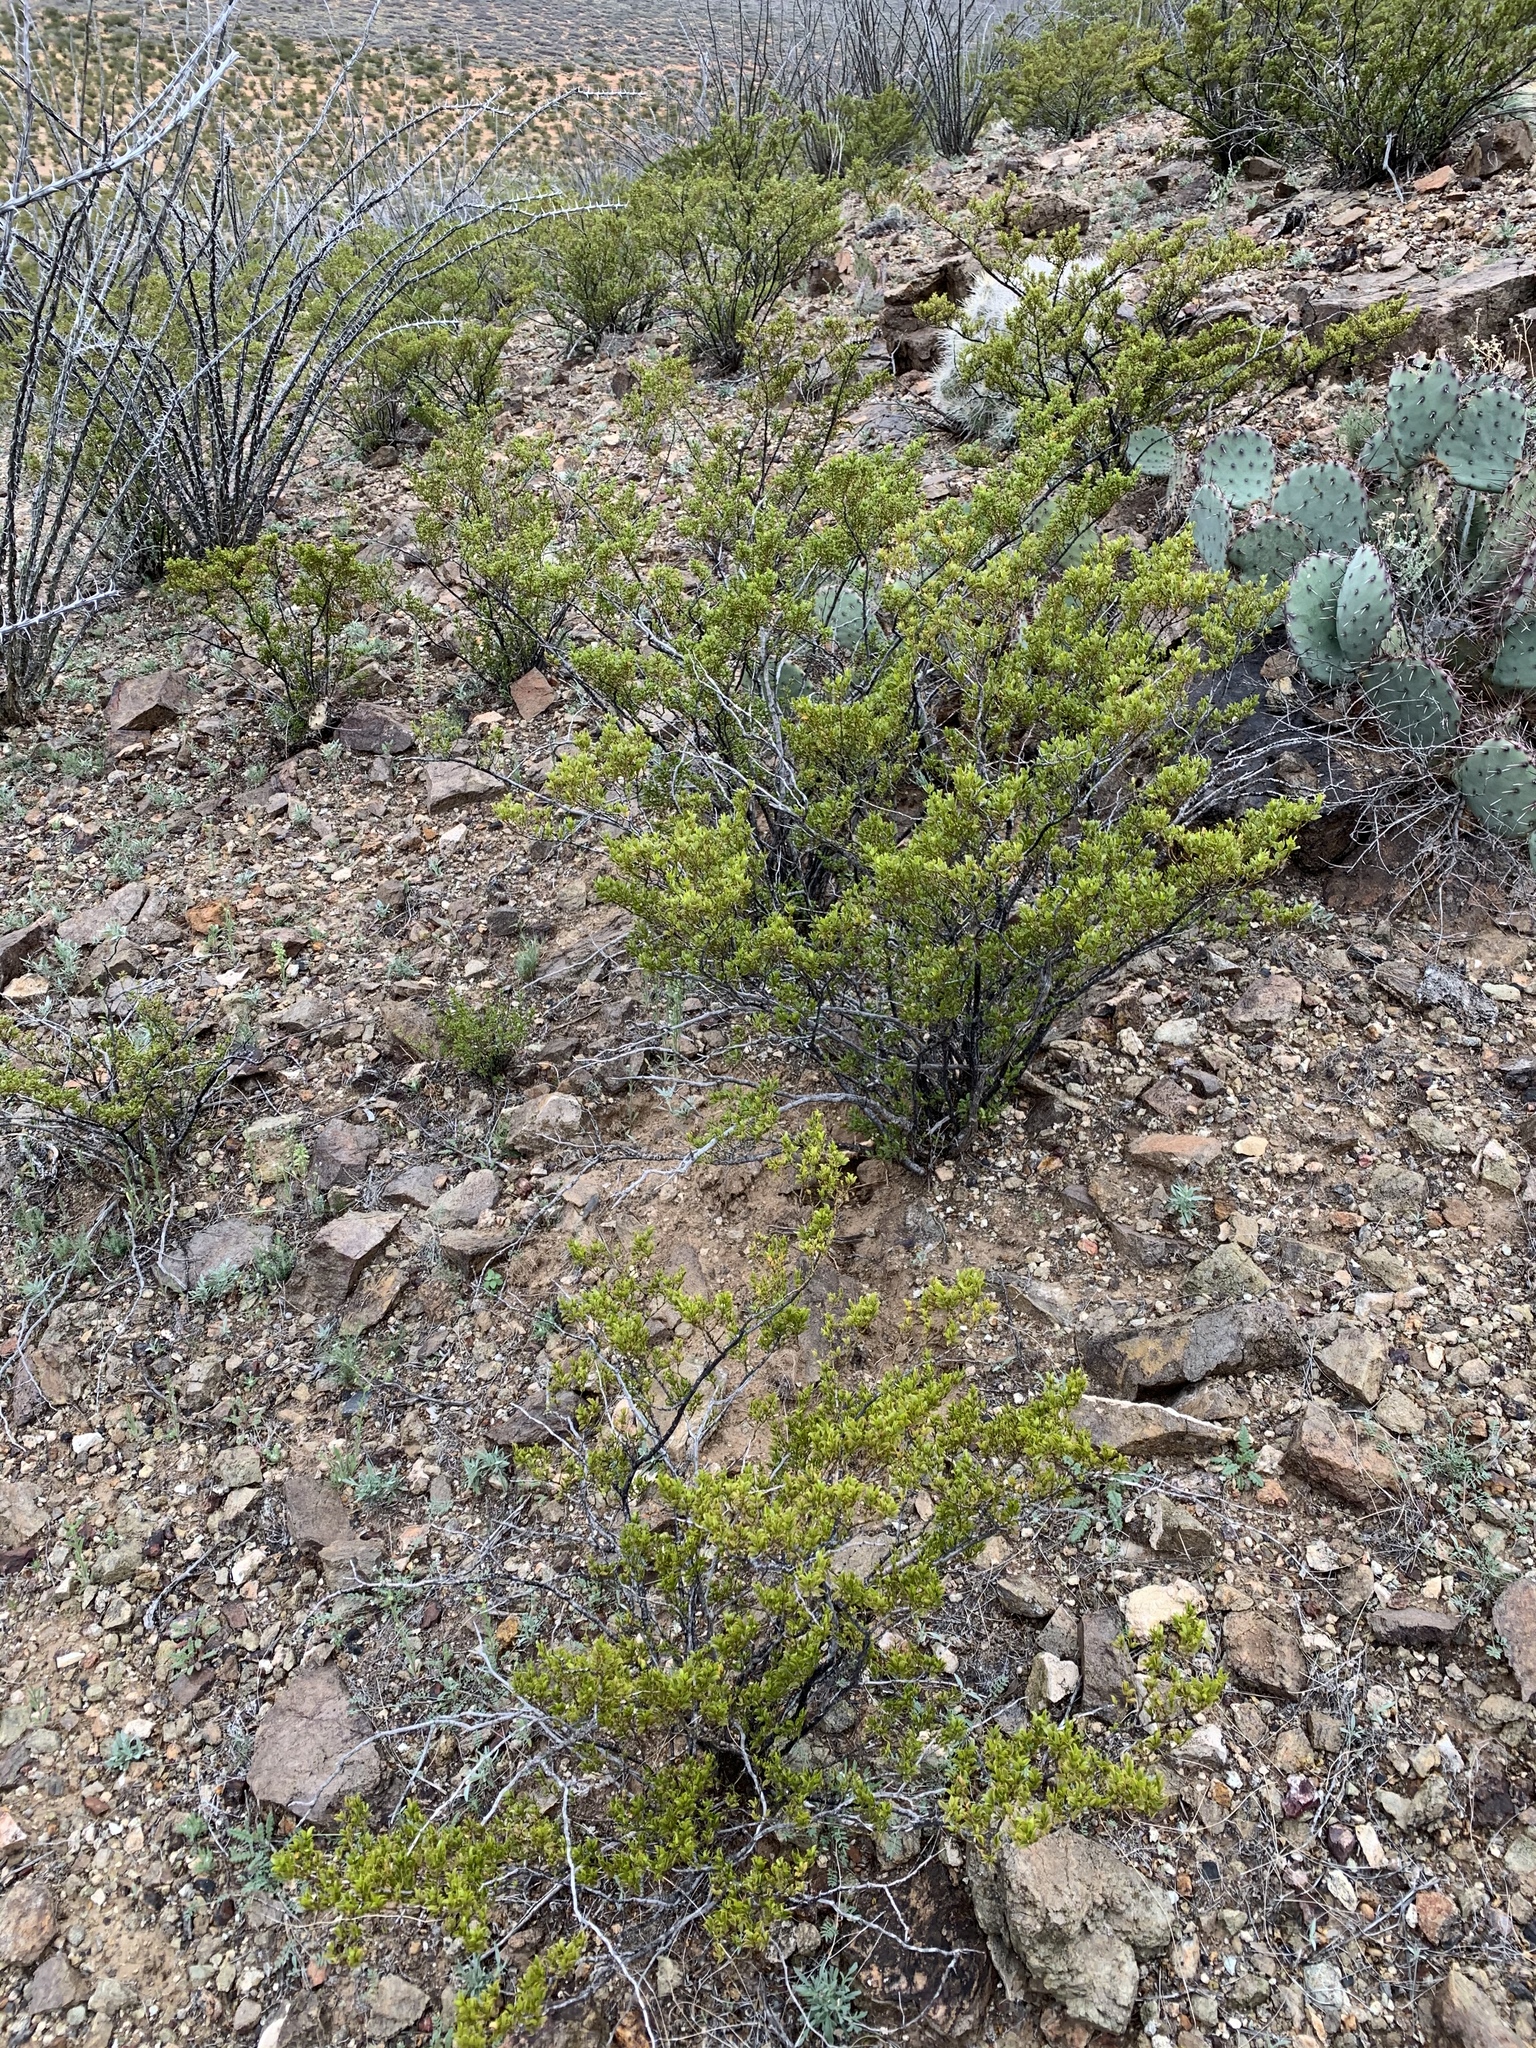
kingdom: Plantae
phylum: Tracheophyta
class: Magnoliopsida
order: Zygophyllales
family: Zygophyllaceae
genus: Larrea
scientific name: Larrea tridentata
